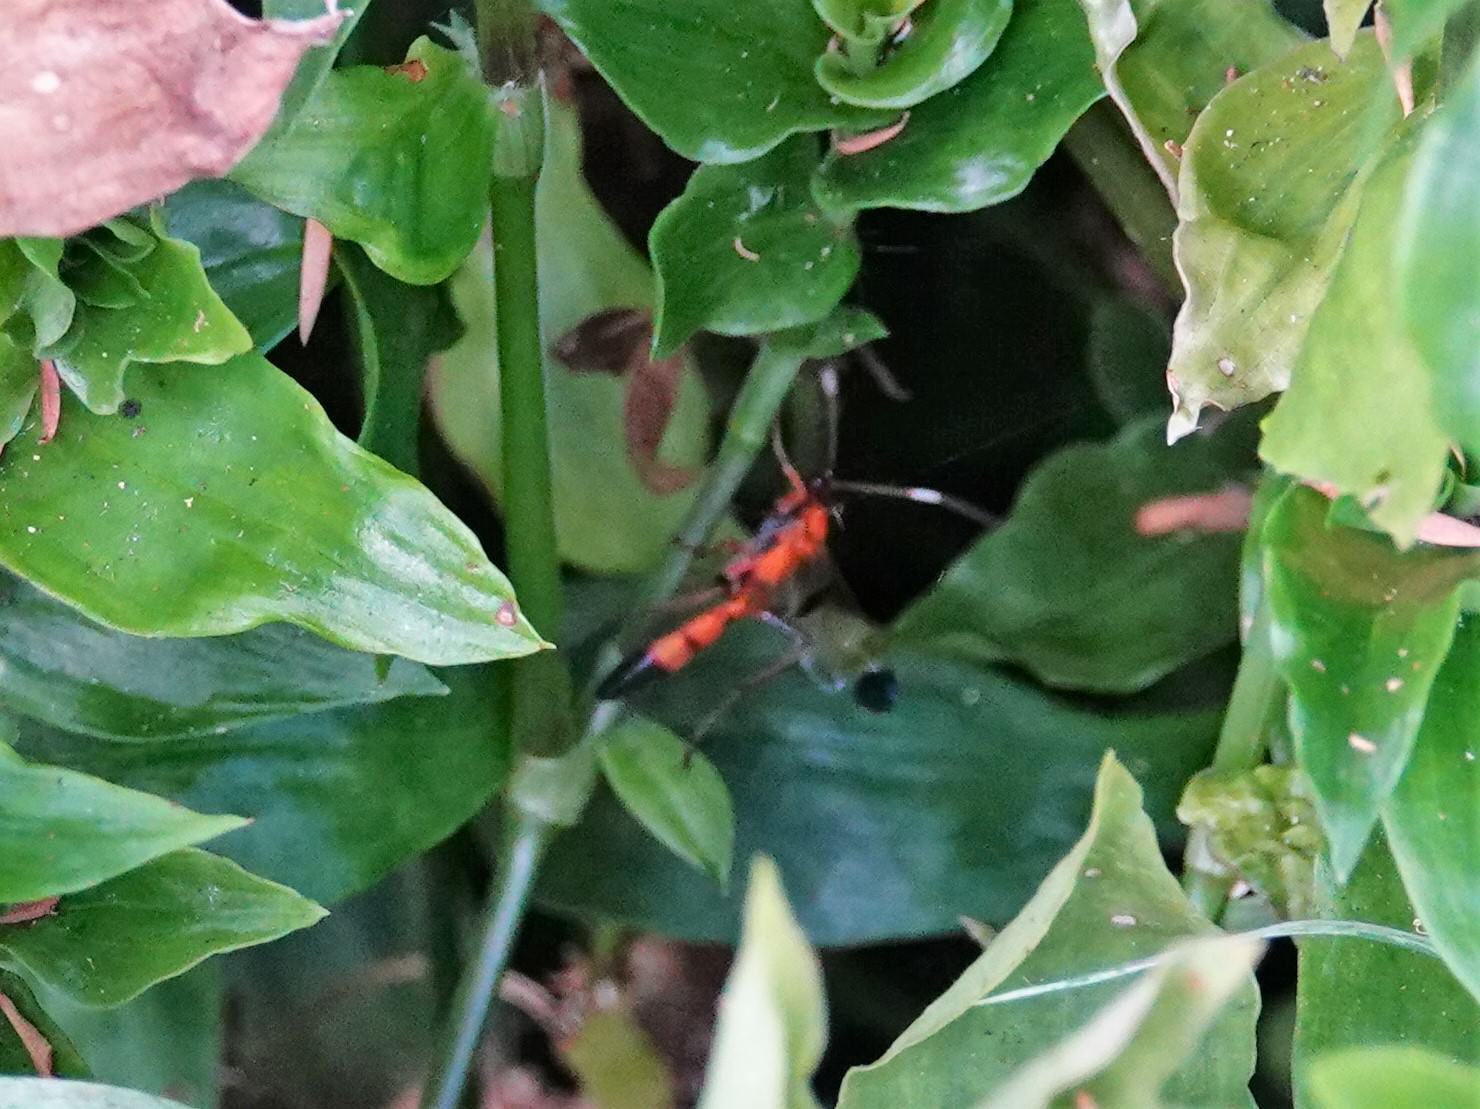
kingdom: Animalia
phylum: Arthropoda
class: Insecta
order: Hymenoptera
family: Ichneumonidae
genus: Ctenochares
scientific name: Ctenochares bicolorus
